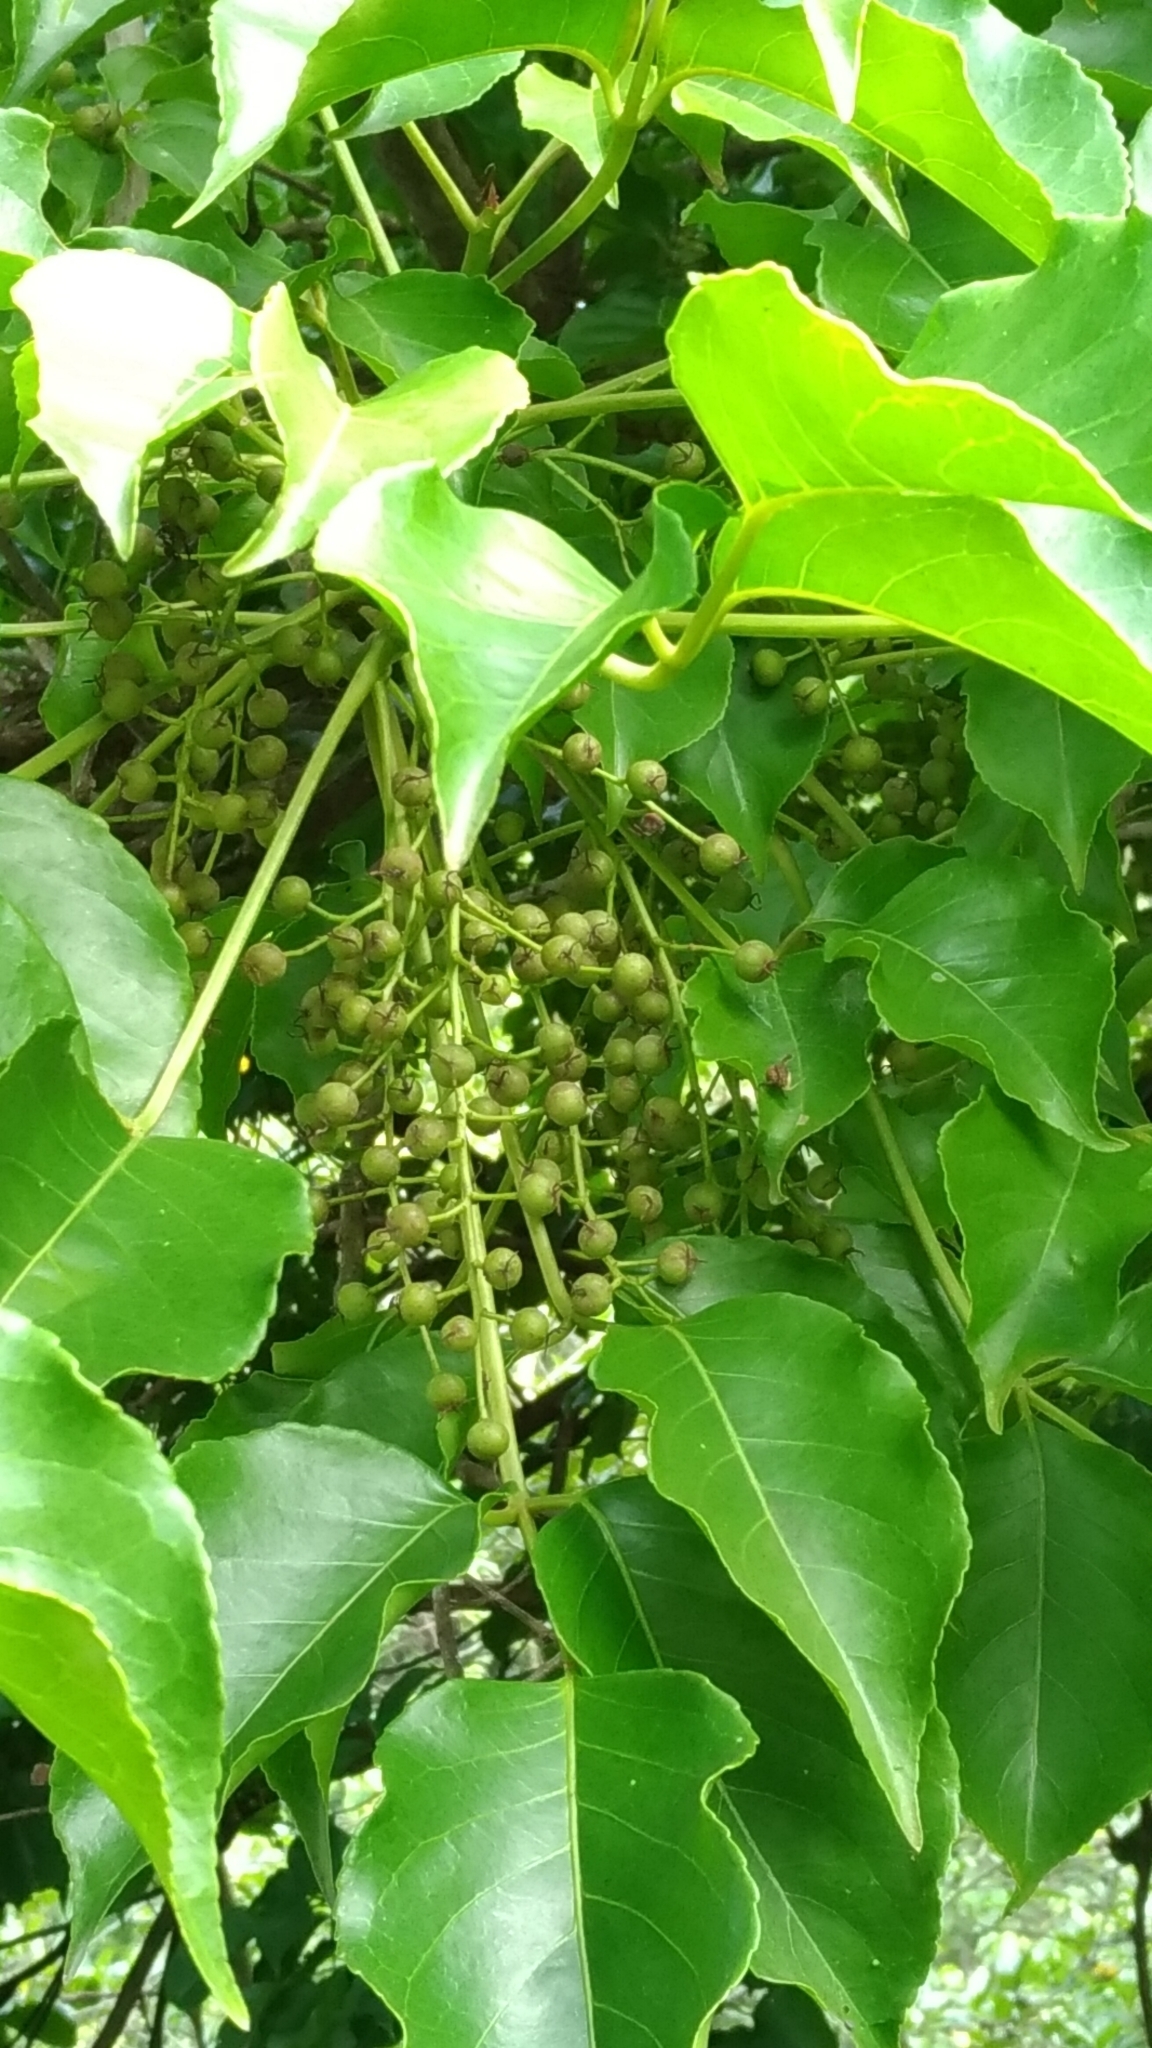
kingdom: Plantae
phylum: Tracheophyta
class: Magnoliopsida
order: Malpighiales
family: Phyllanthaceae
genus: Bischofia
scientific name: Bischofia javanica
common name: Javanese bishopwood
